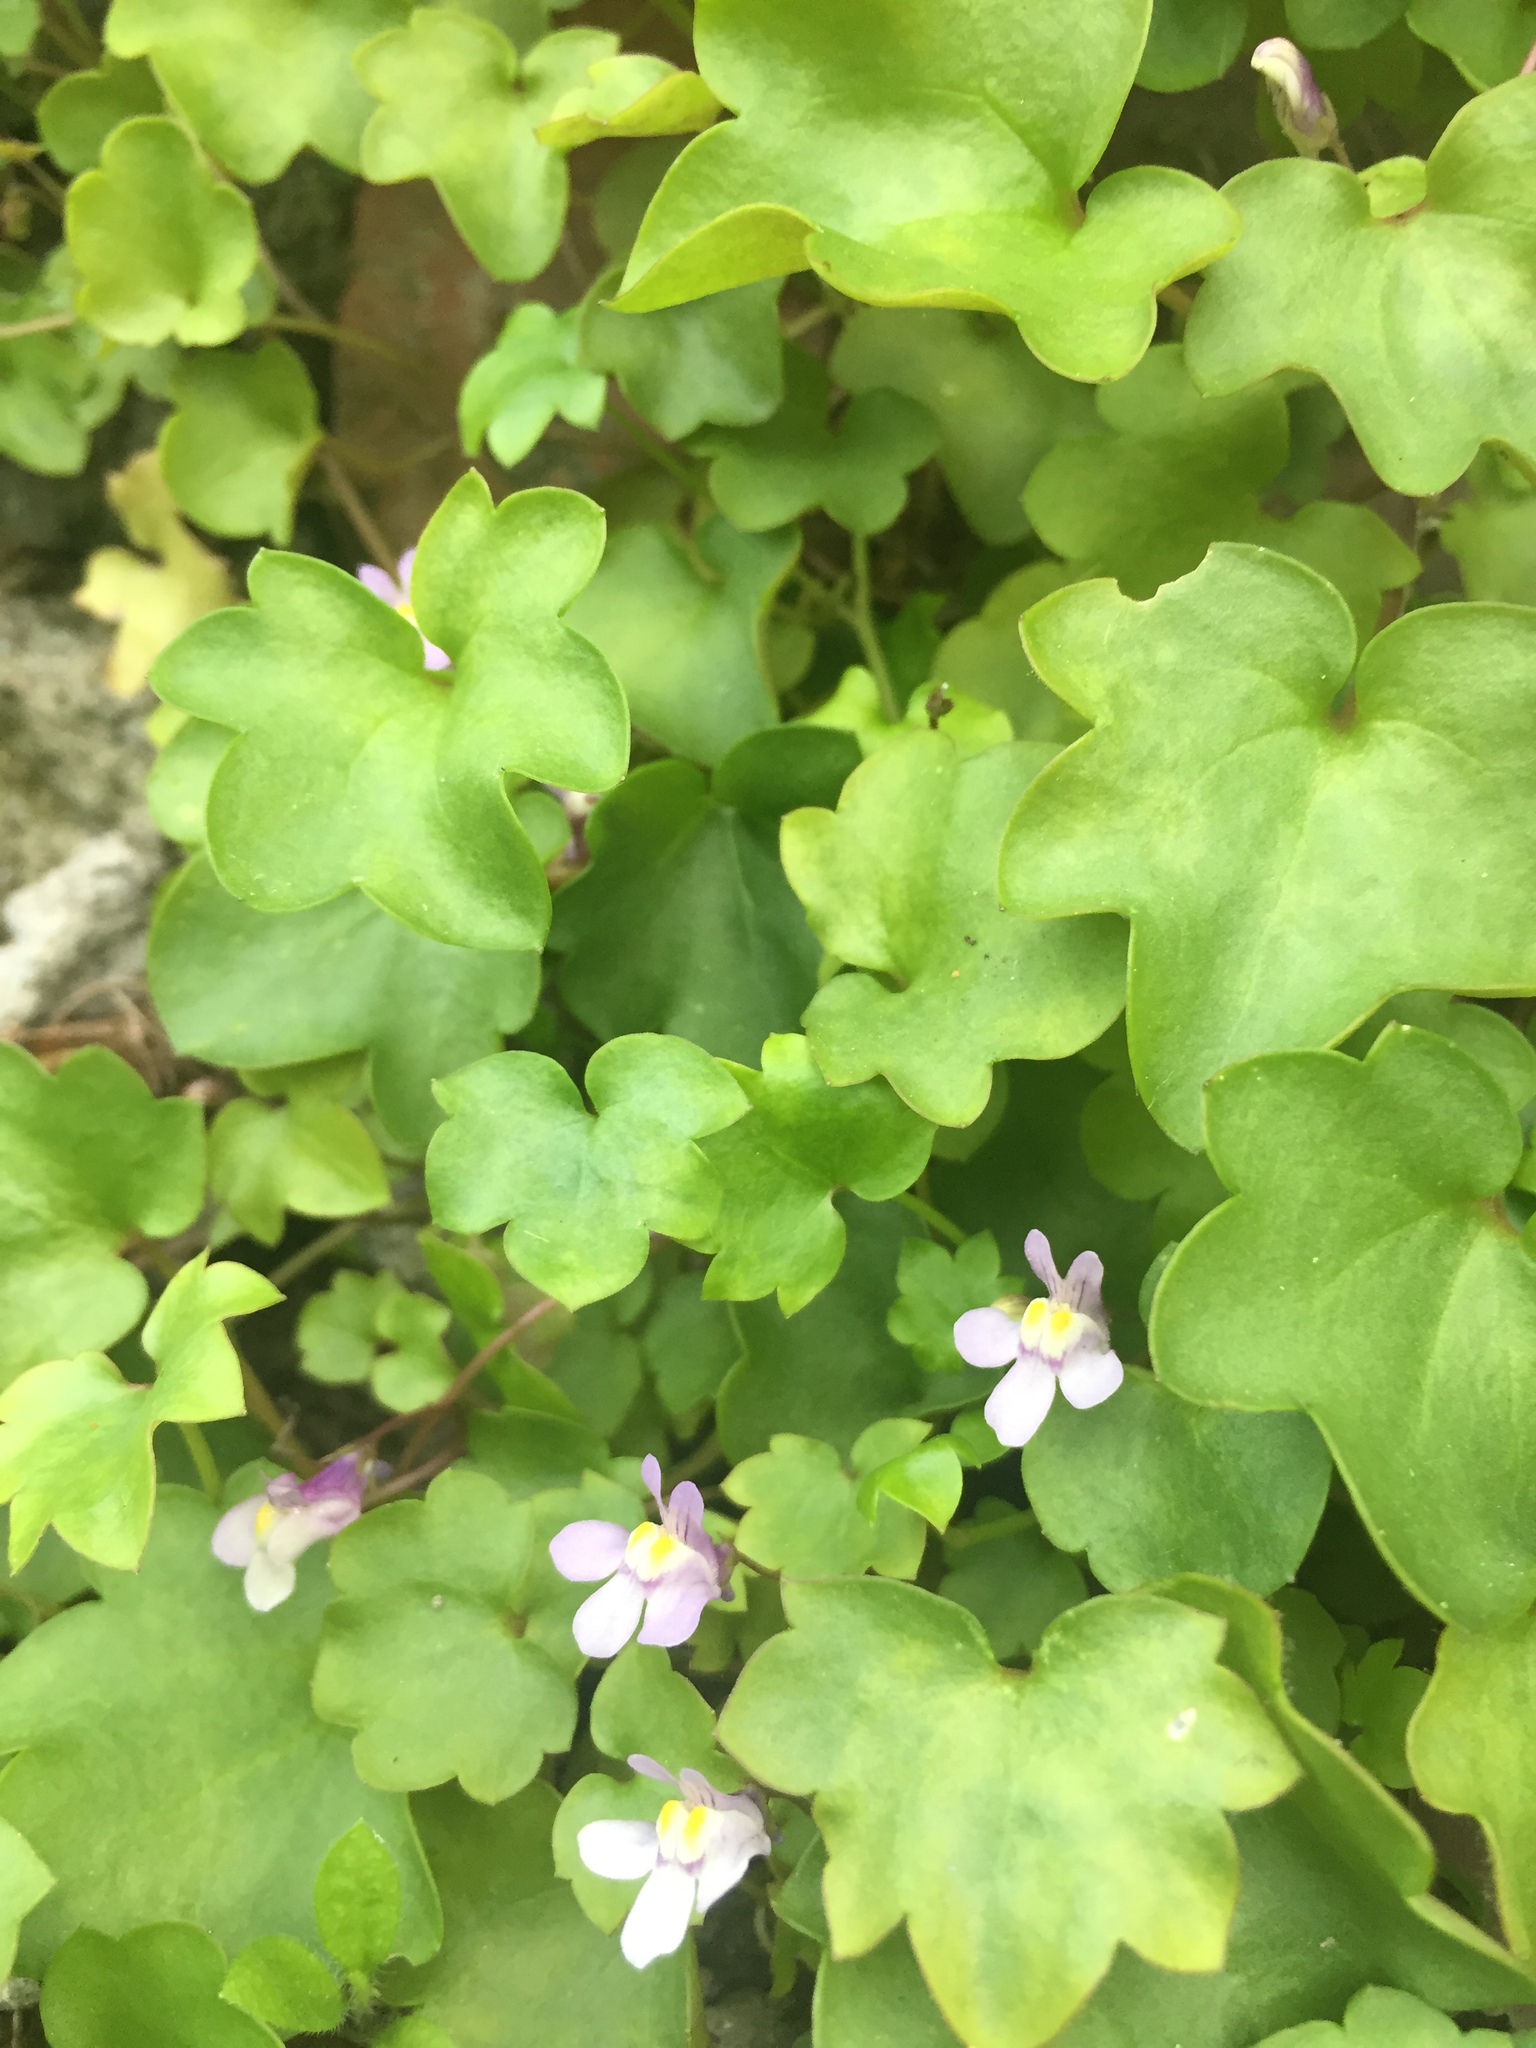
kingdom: Plantae
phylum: Tracheophyta
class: Magnoliopsida
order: Lamiales
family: Plantaginaceae
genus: Cymbalaria
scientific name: Cymbalaria muralis
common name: Ivy-leaved toadflax
